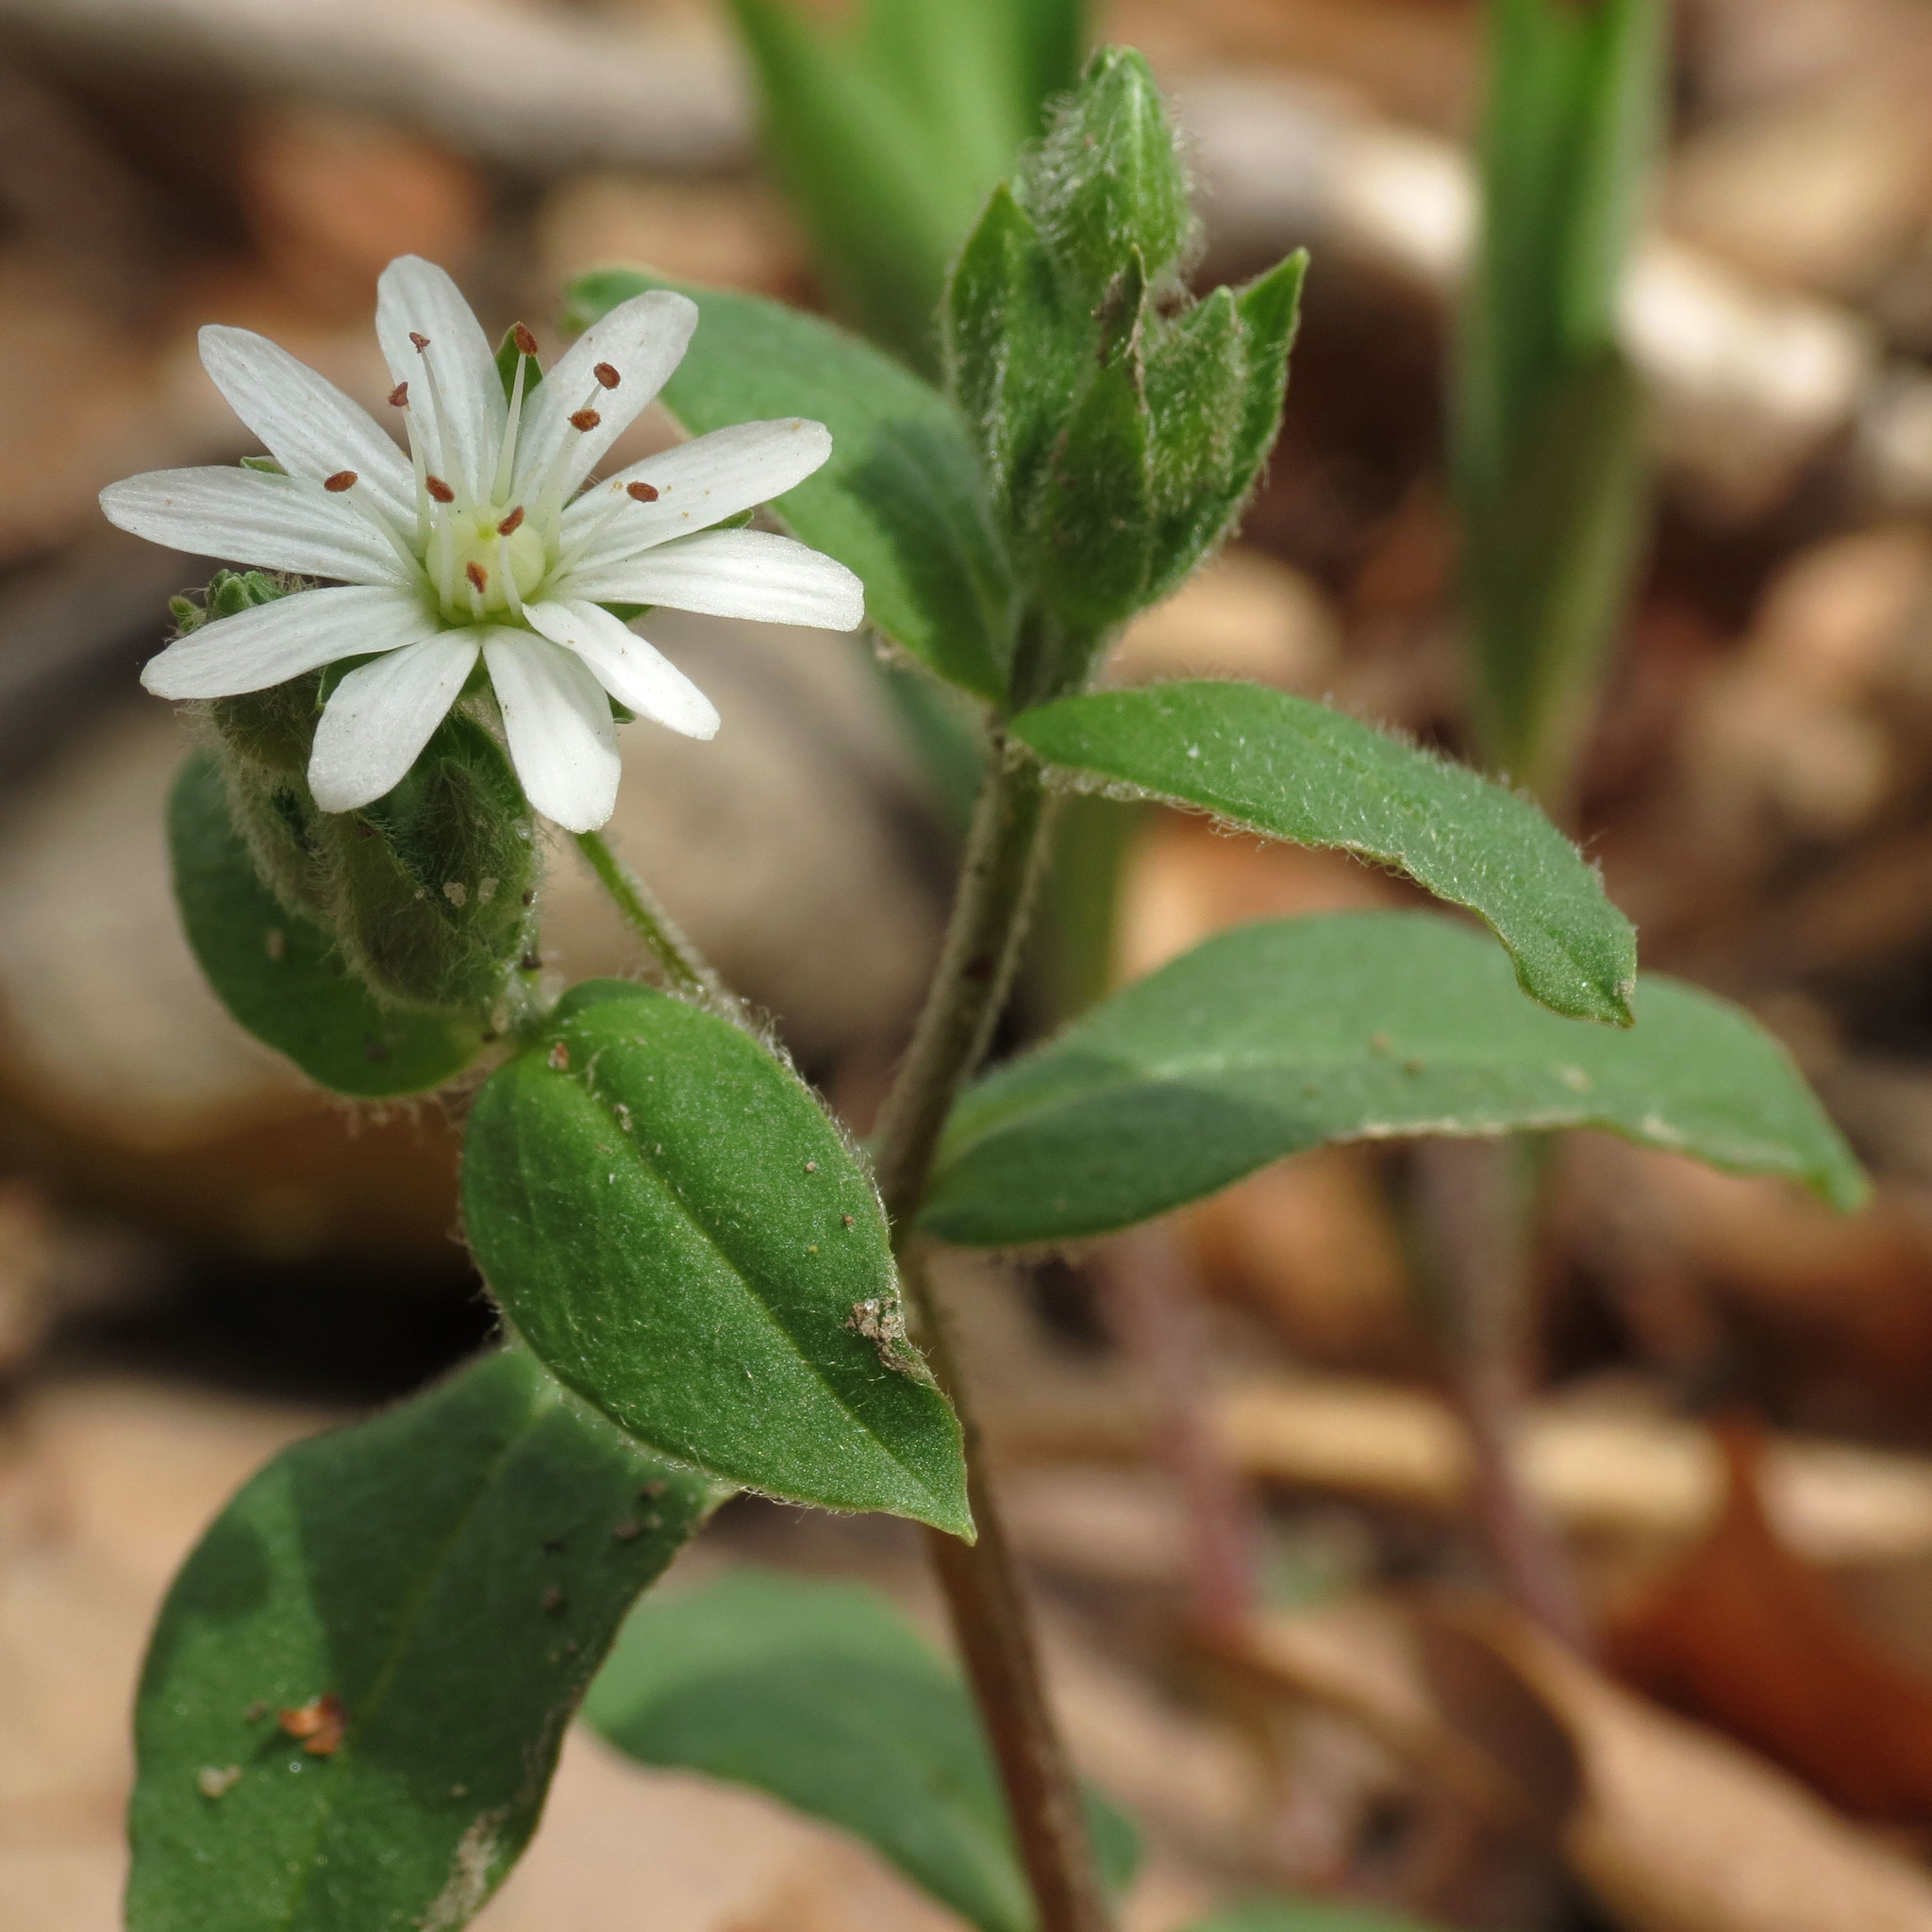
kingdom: Plantae
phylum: Tracheophyta
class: Magnoliopsida
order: Caryophyllales
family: Caryophyllaceae
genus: Stellaria
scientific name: Stellaria pubera
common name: Star chickweed
